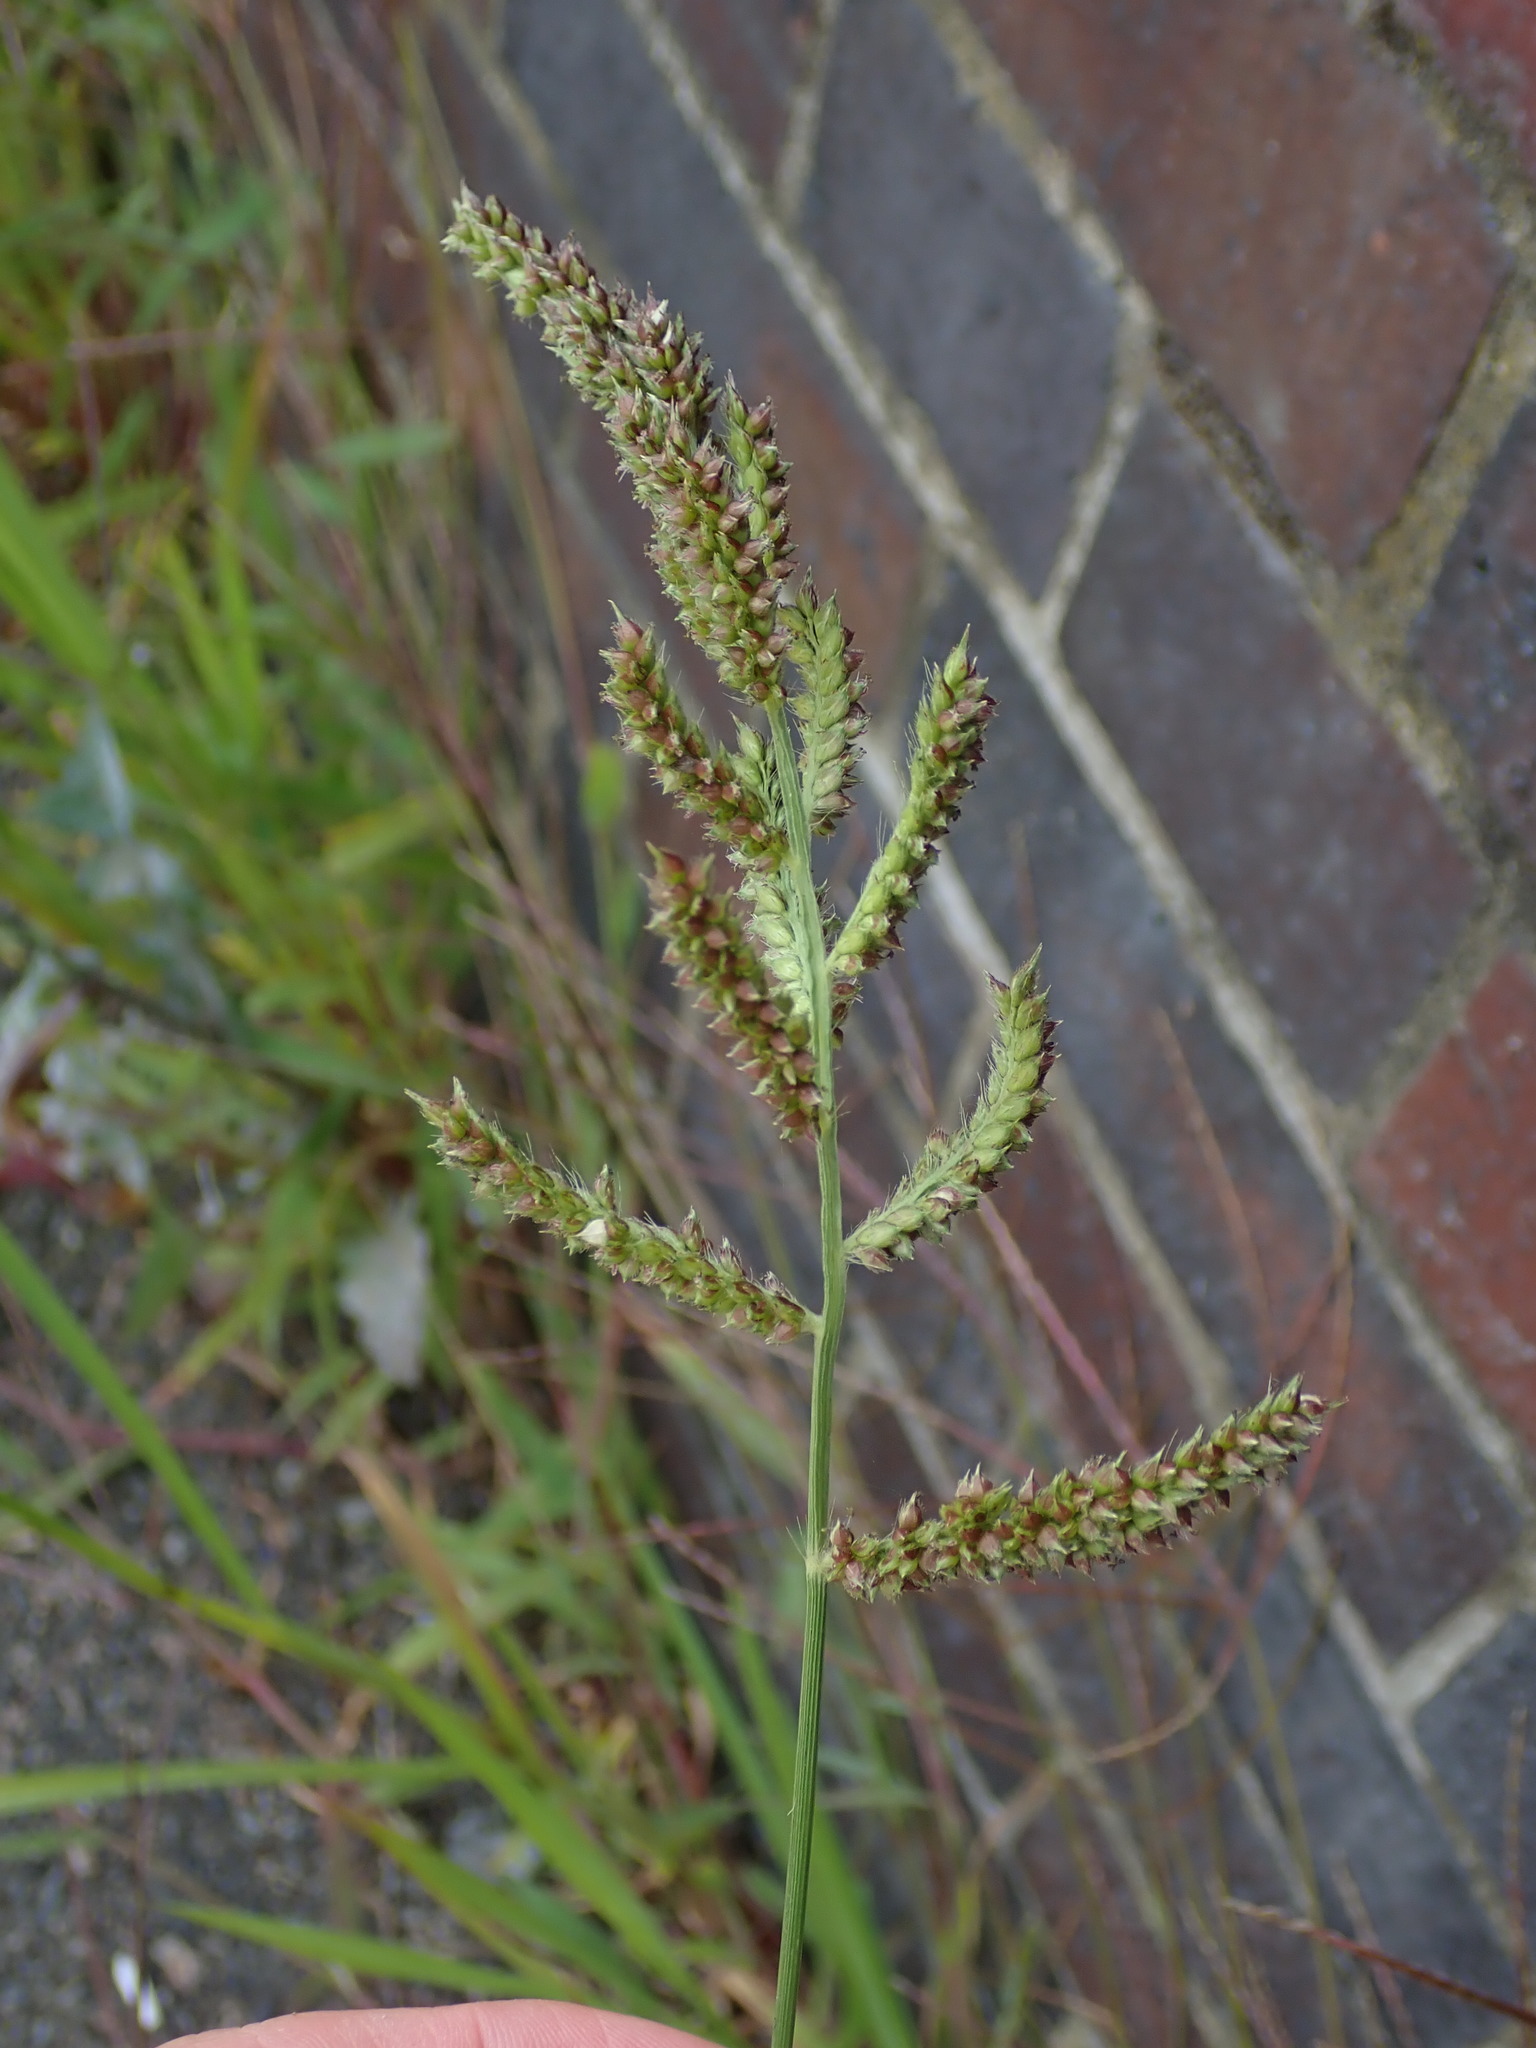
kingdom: Plantae
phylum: Tracheophyta
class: Liliopsida
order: Poales
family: Poaceae
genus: Echinochloa
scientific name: Echinochloa crus-galli
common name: Cockspur
